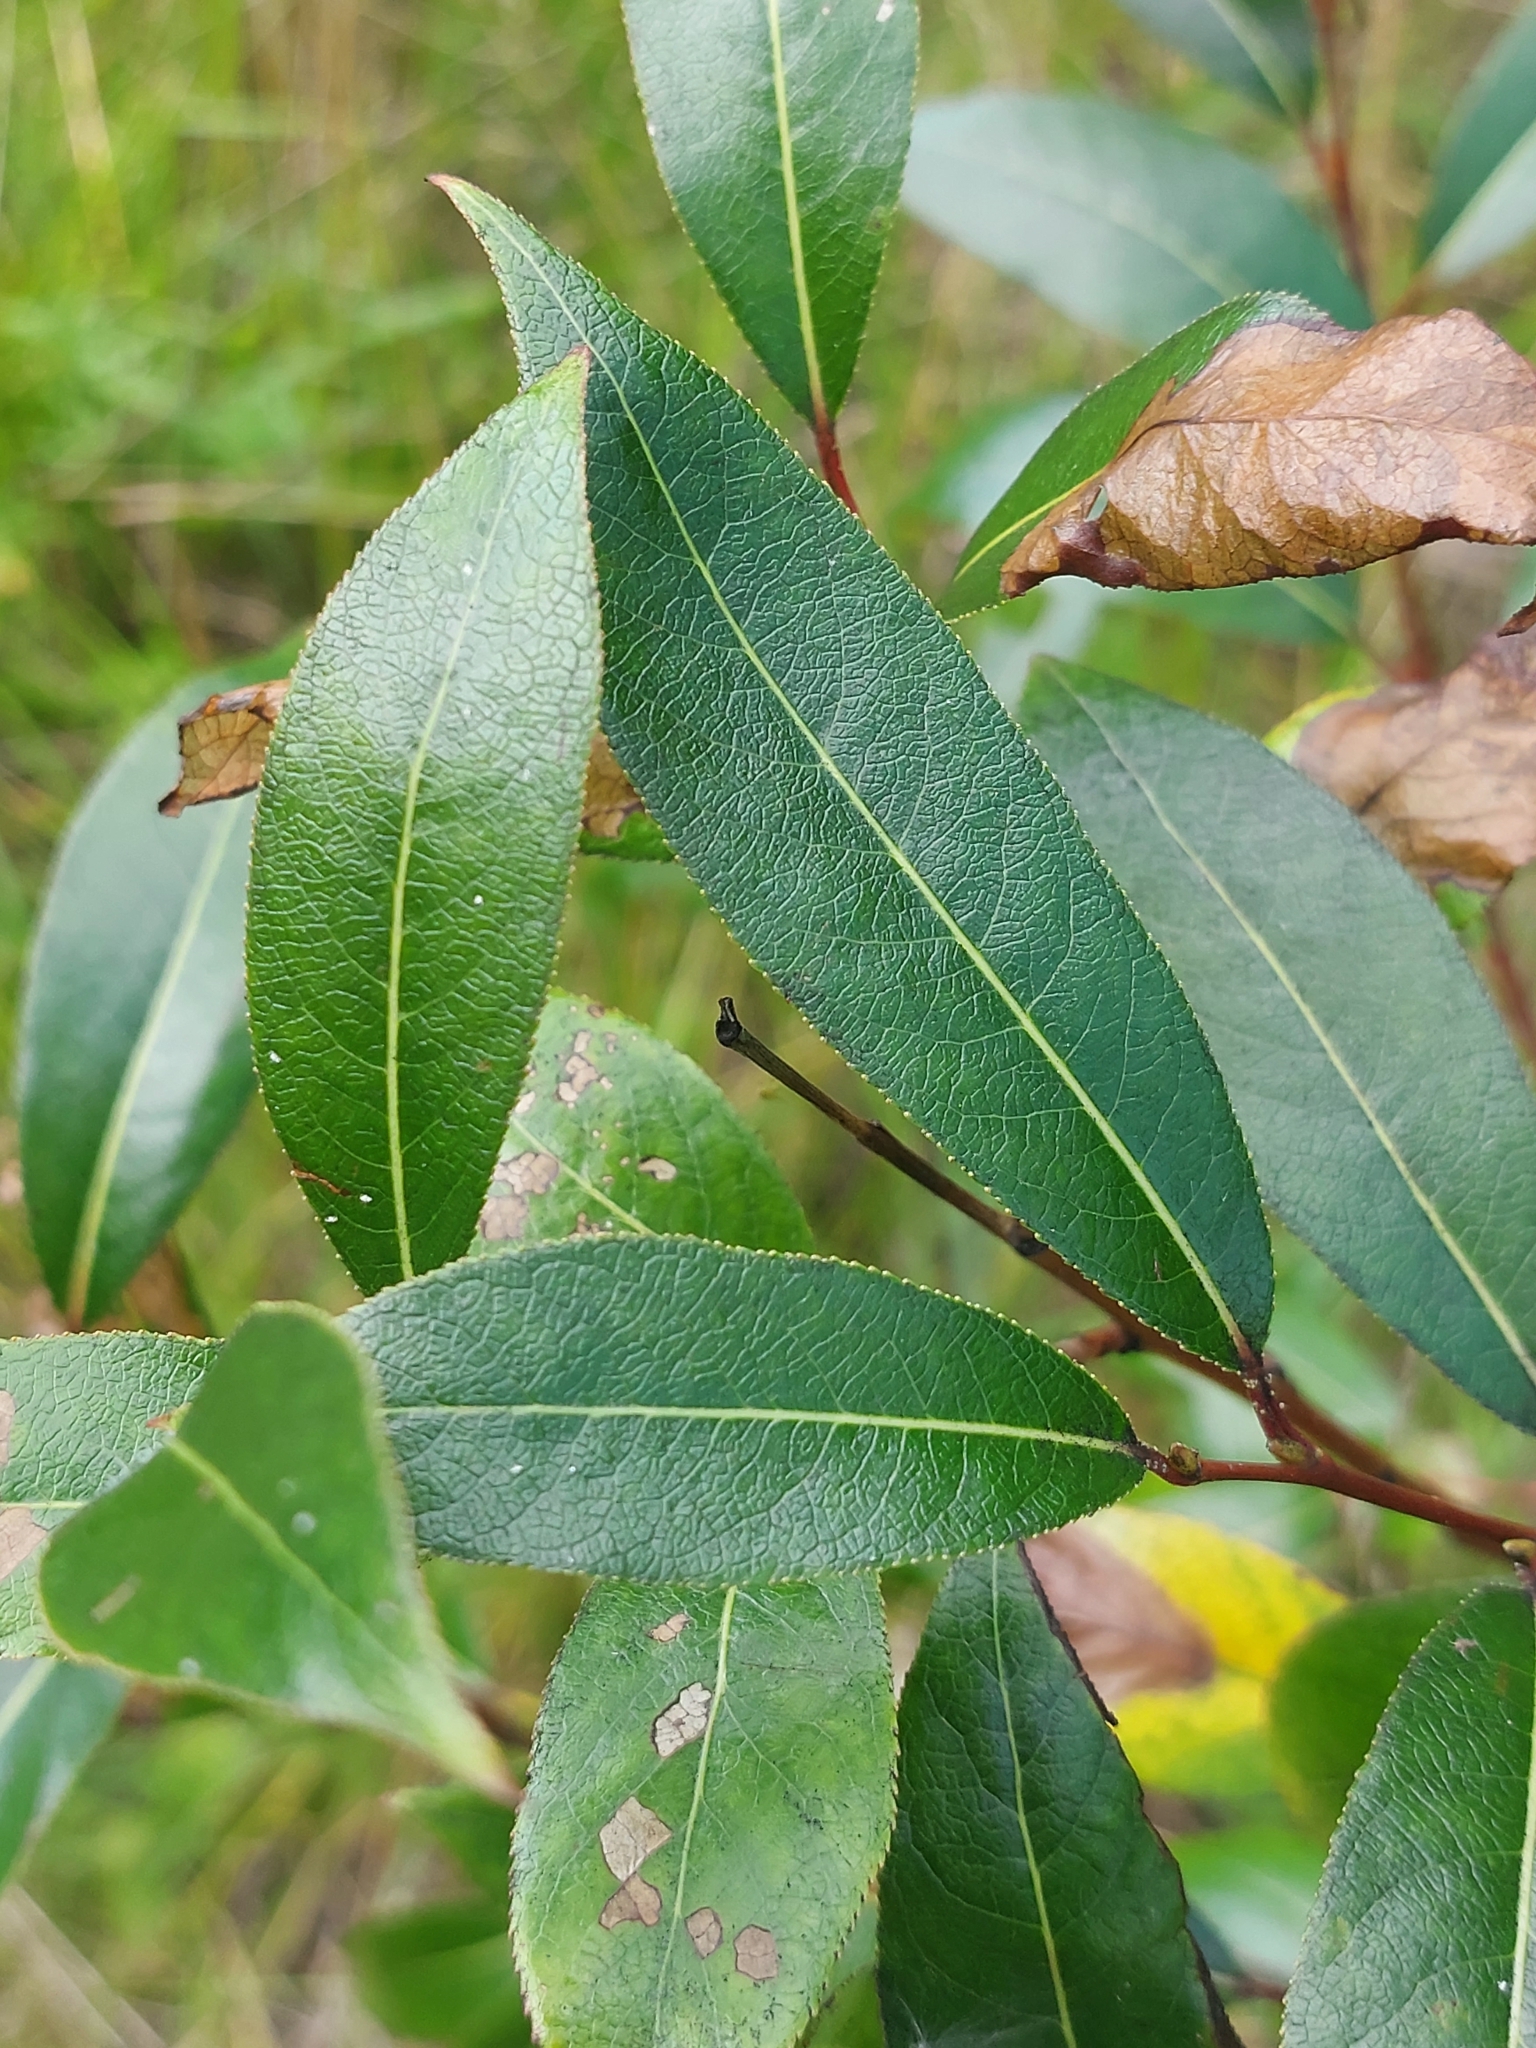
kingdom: Plantae
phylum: Tracheophyta
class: Magnoliopsida
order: Malpighiales
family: Salicaceae
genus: Salix
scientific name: Salix pentandra
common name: Bay willow
